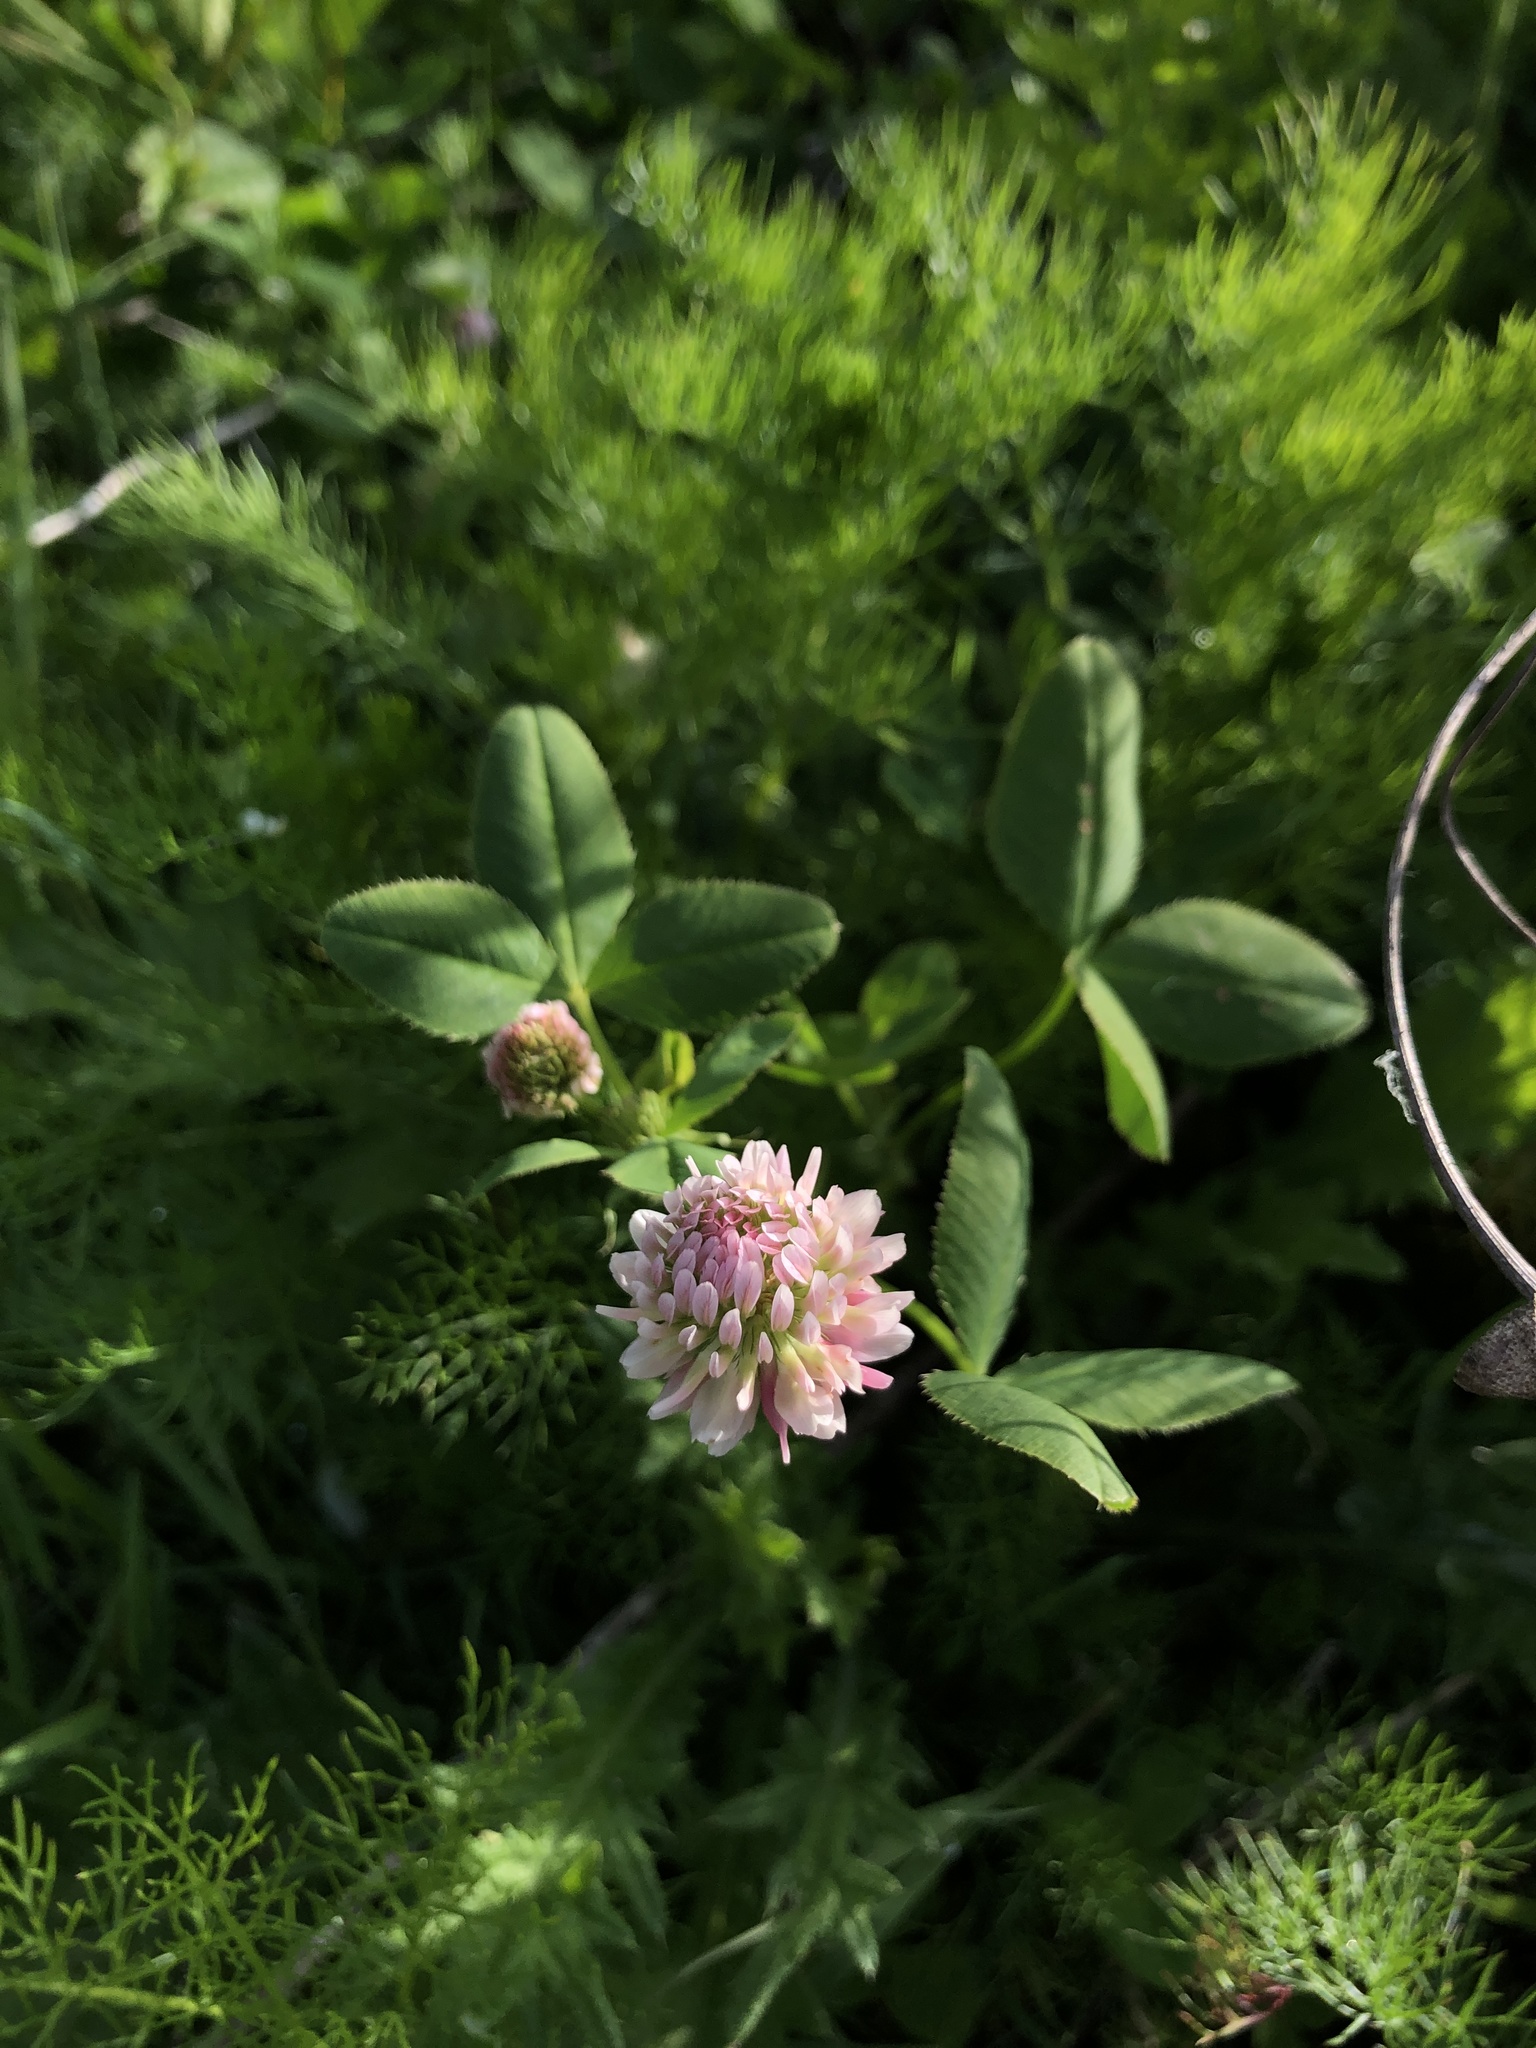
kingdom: Plantae
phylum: Tracheophyta
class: Magnoliopsida
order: Fabales
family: Fabaceae
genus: Trifolium
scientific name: Trifolium hybridum
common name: Alsike clover
